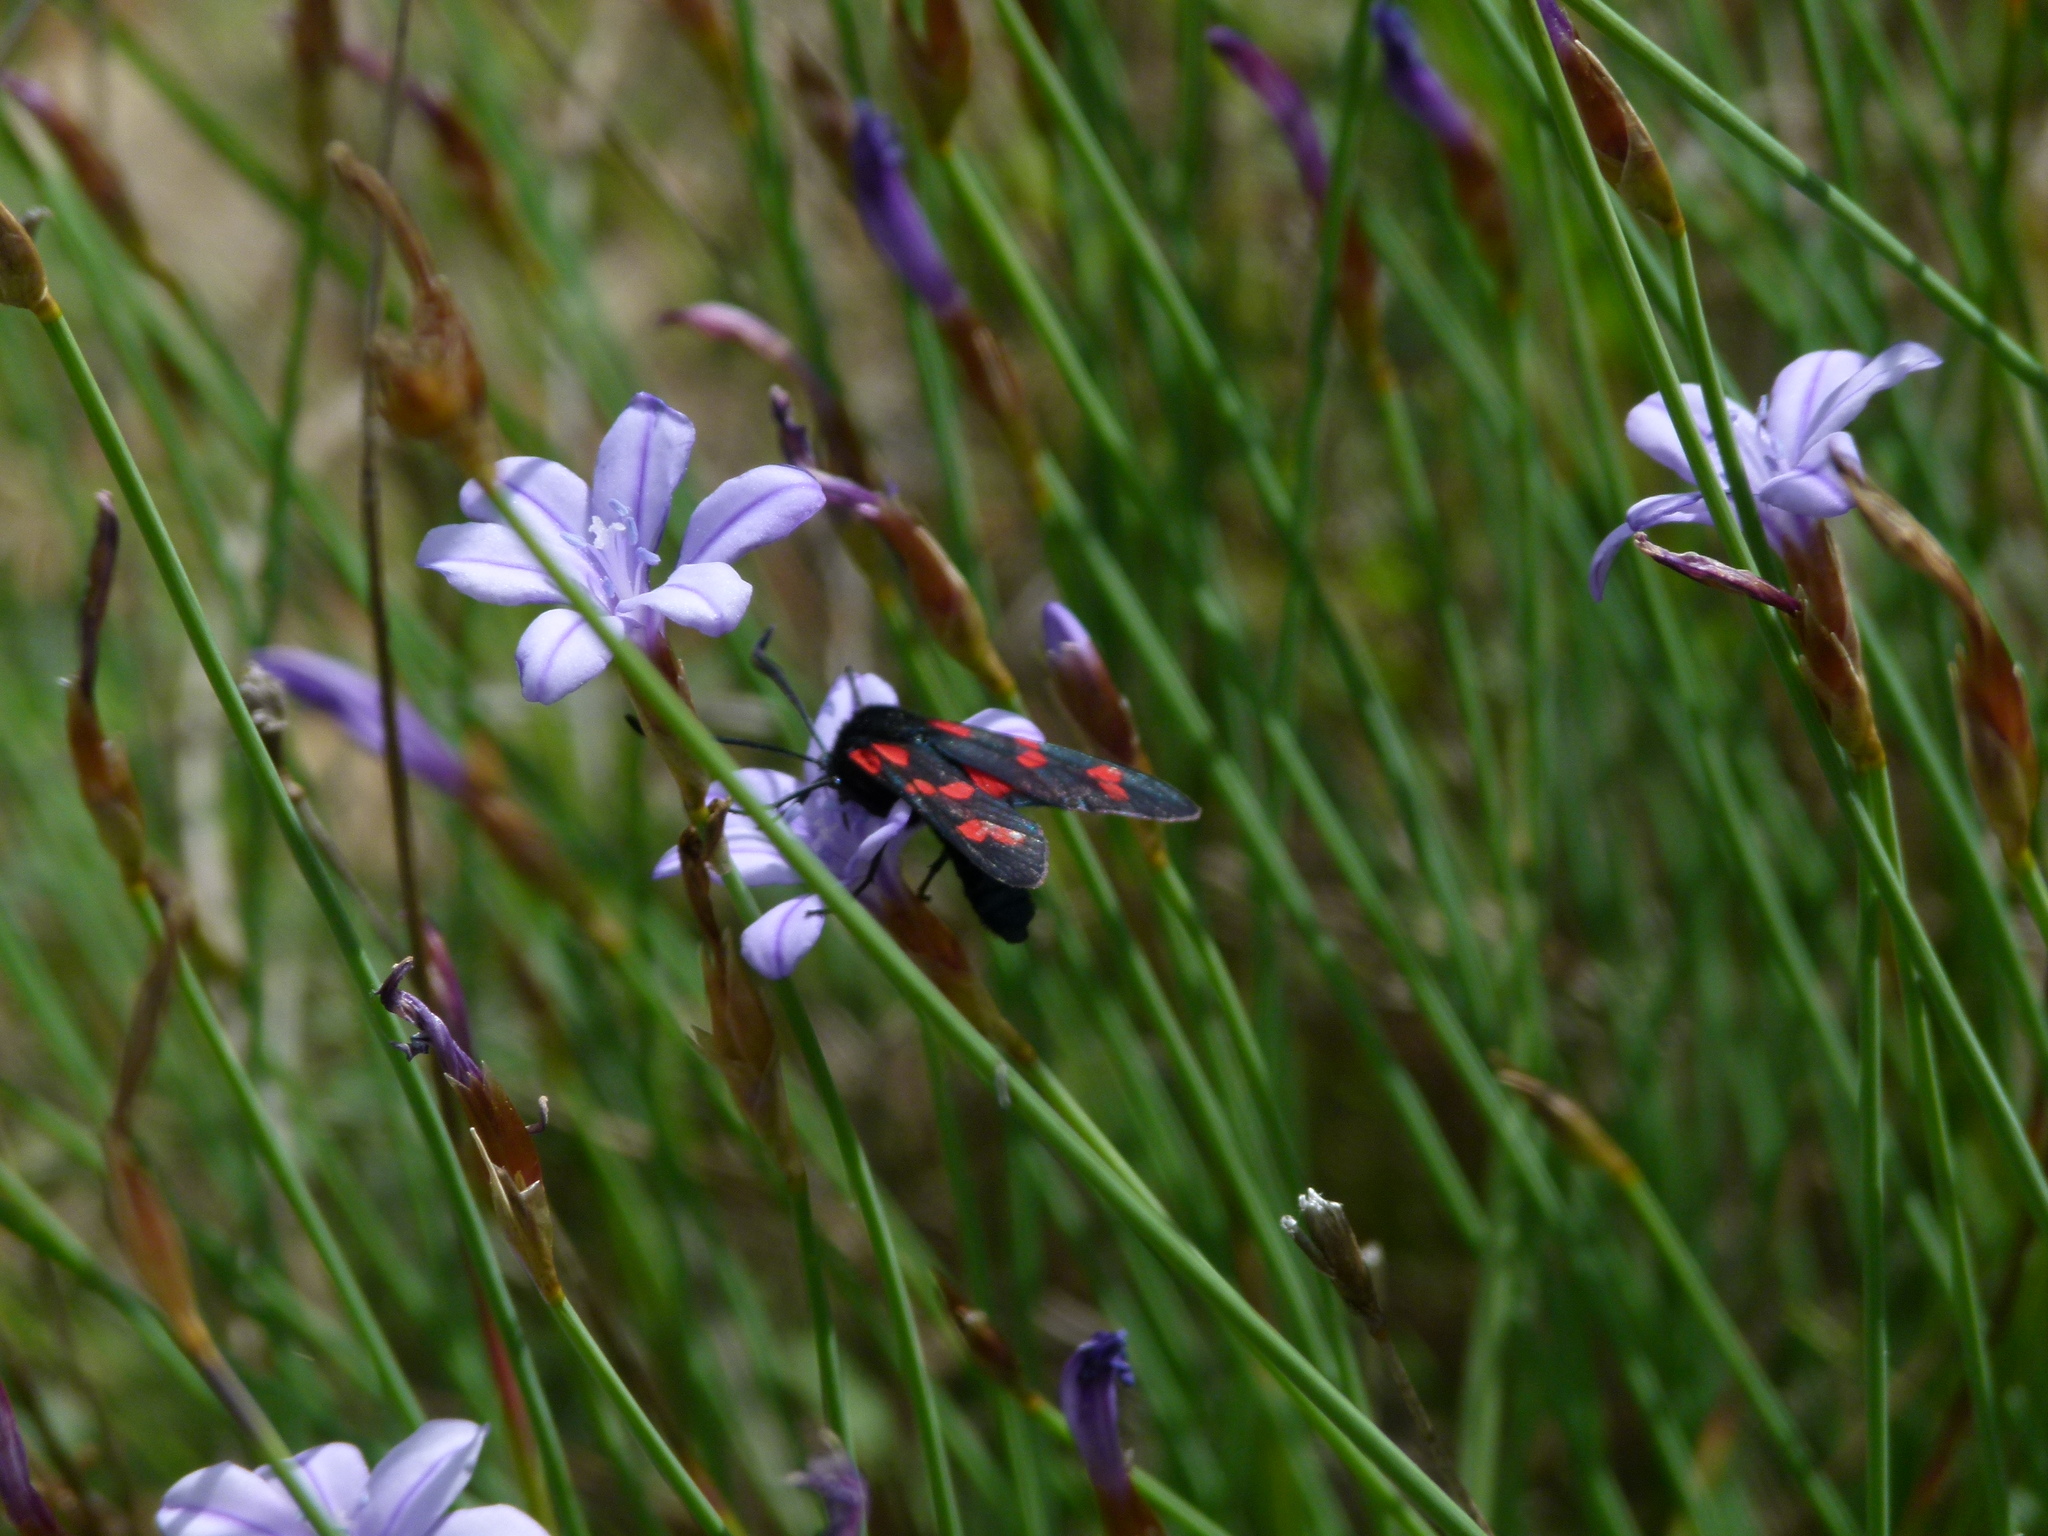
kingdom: Animalia
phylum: Arthropoda
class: Insecta
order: Lepidoptera
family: Zygaenidae
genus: Zygaena
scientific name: Zygaena filipendulae
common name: Six-spot burnet
